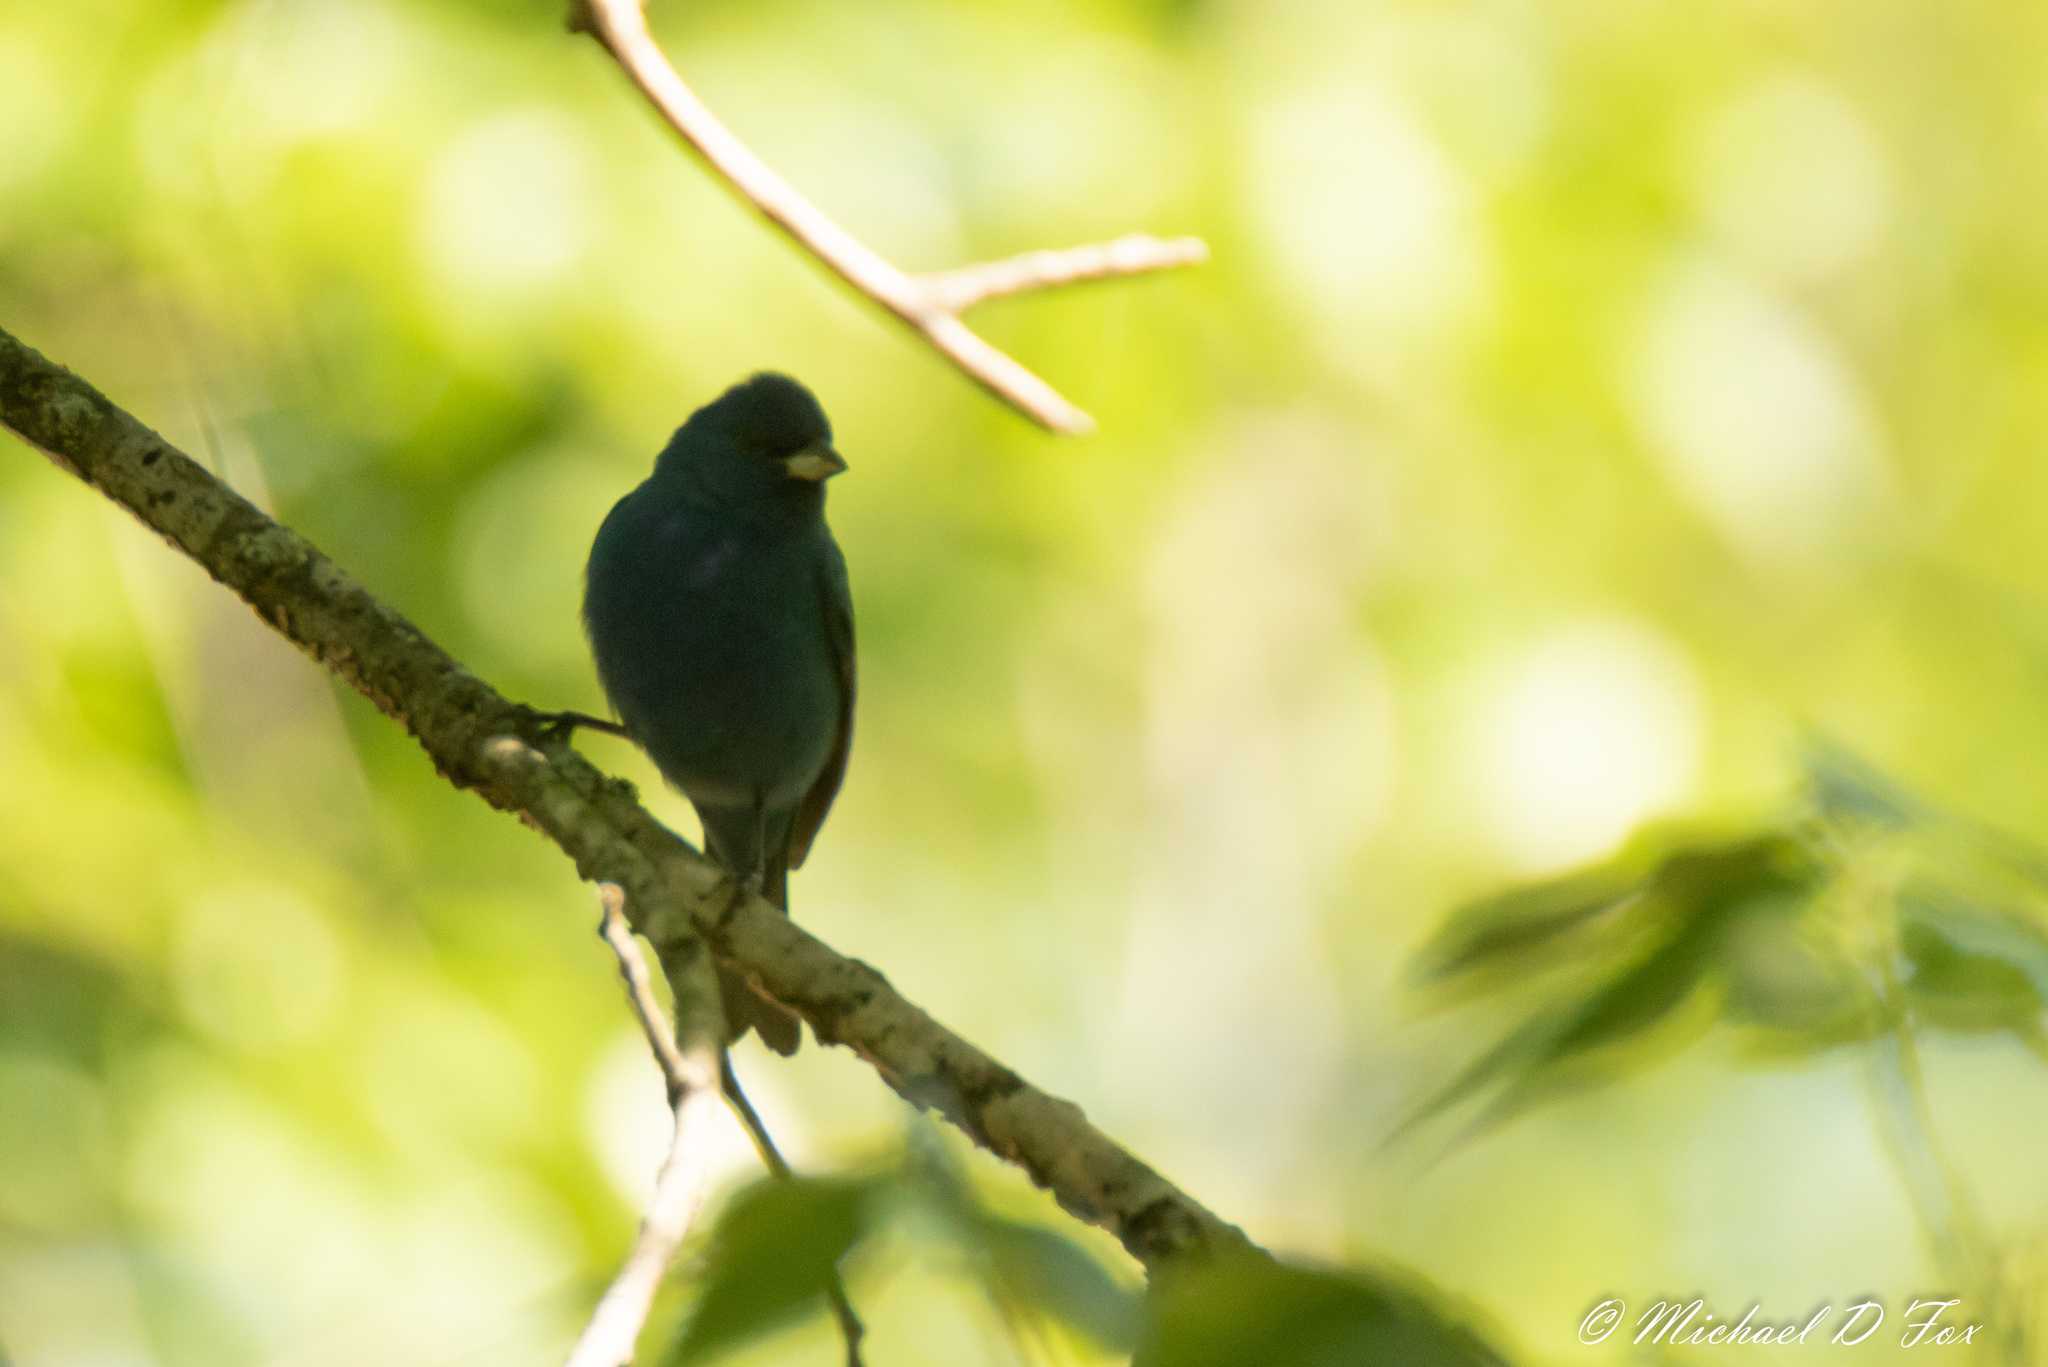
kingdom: Animalia
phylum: Chordata
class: Aves
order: Passeriformes
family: Cardinalidae
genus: Passerina
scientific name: Passerina cyanea
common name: Indigo bunting
